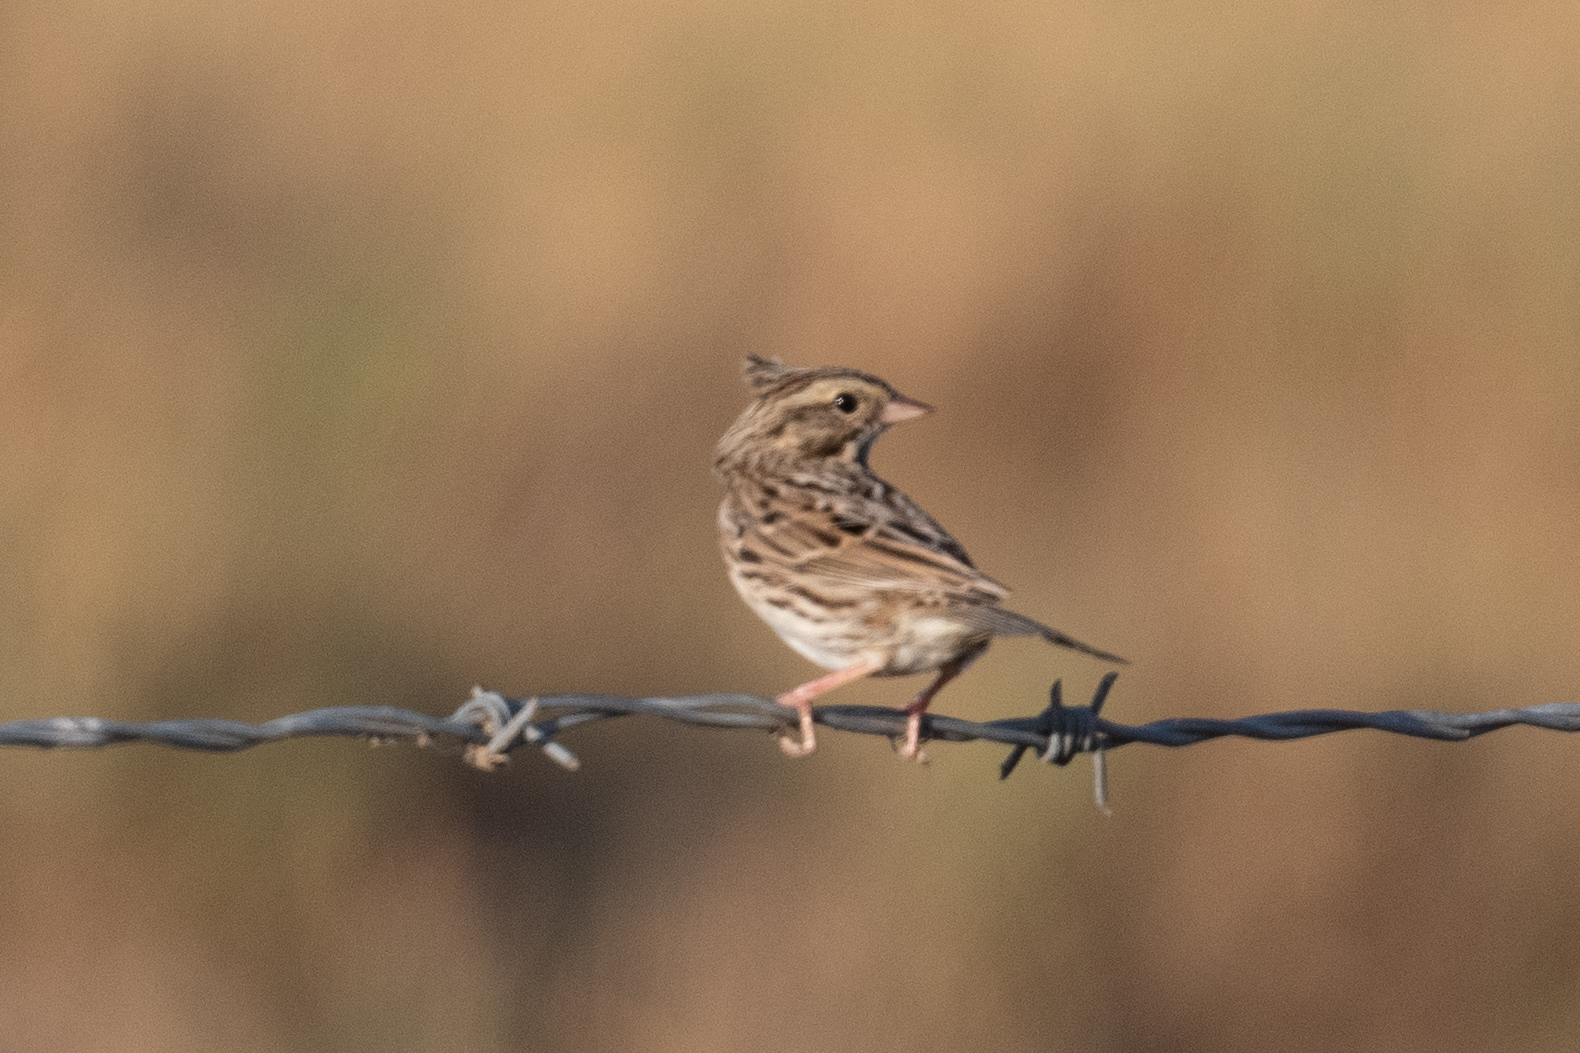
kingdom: Animalia
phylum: Chordata
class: Aves
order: Passeriformes
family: Passerellidae
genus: Passerculus
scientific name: Passerculus sandwichensis
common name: Savannah sparrow
